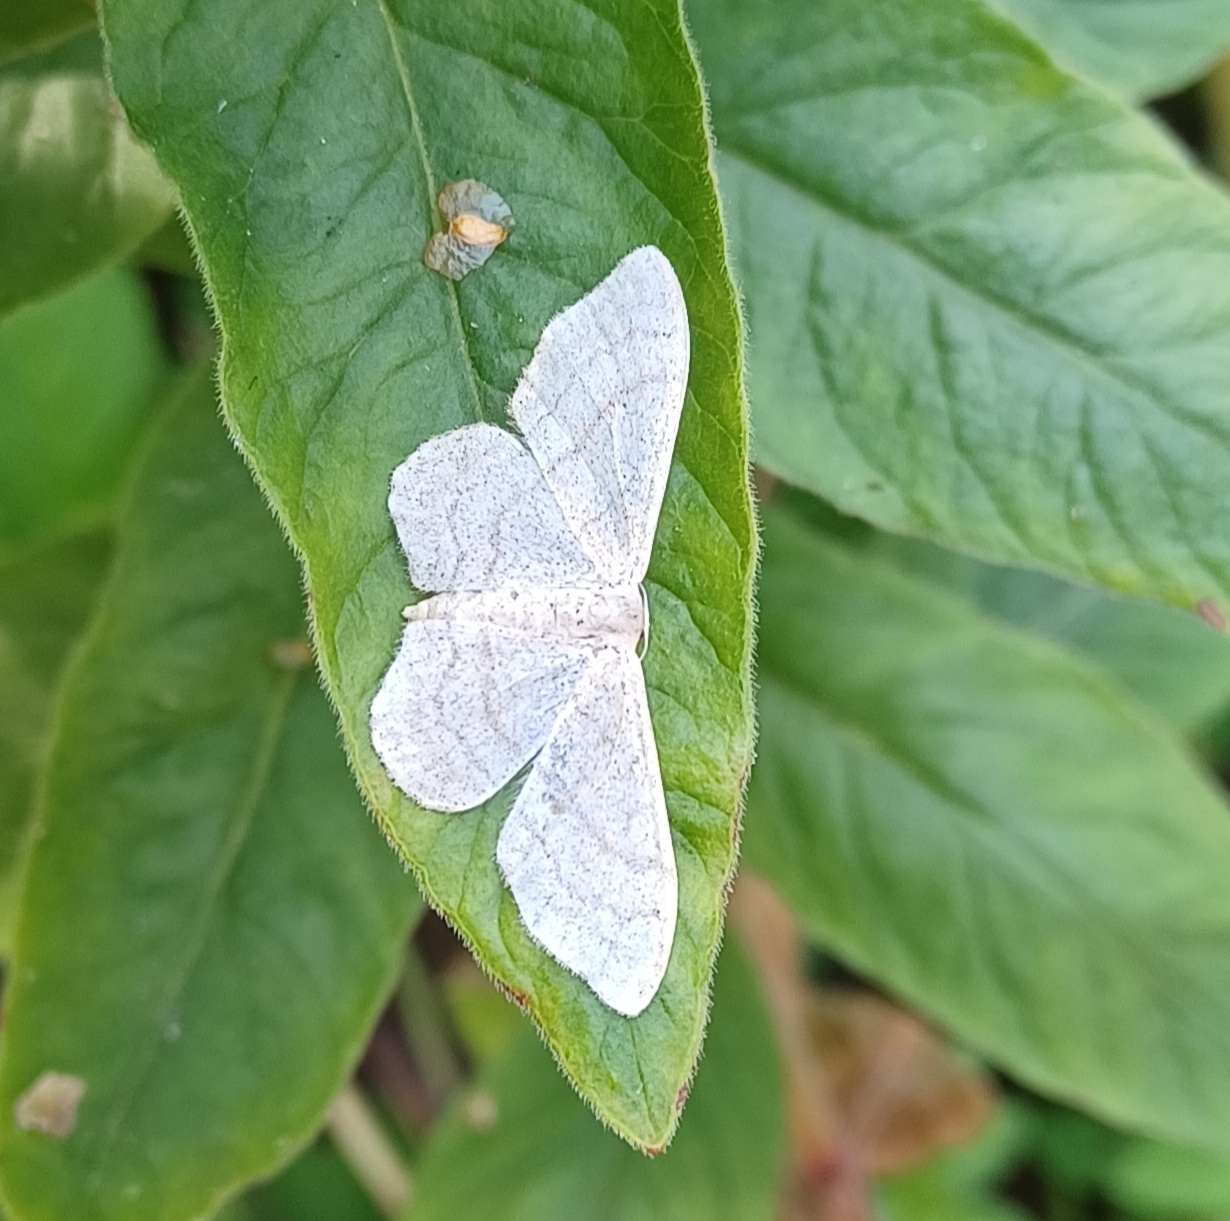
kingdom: Animalia
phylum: Arthropoda
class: Insecta
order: Lepidoptera
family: Geometridae
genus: Idaea
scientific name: Idaea aversata
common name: Riband wave
